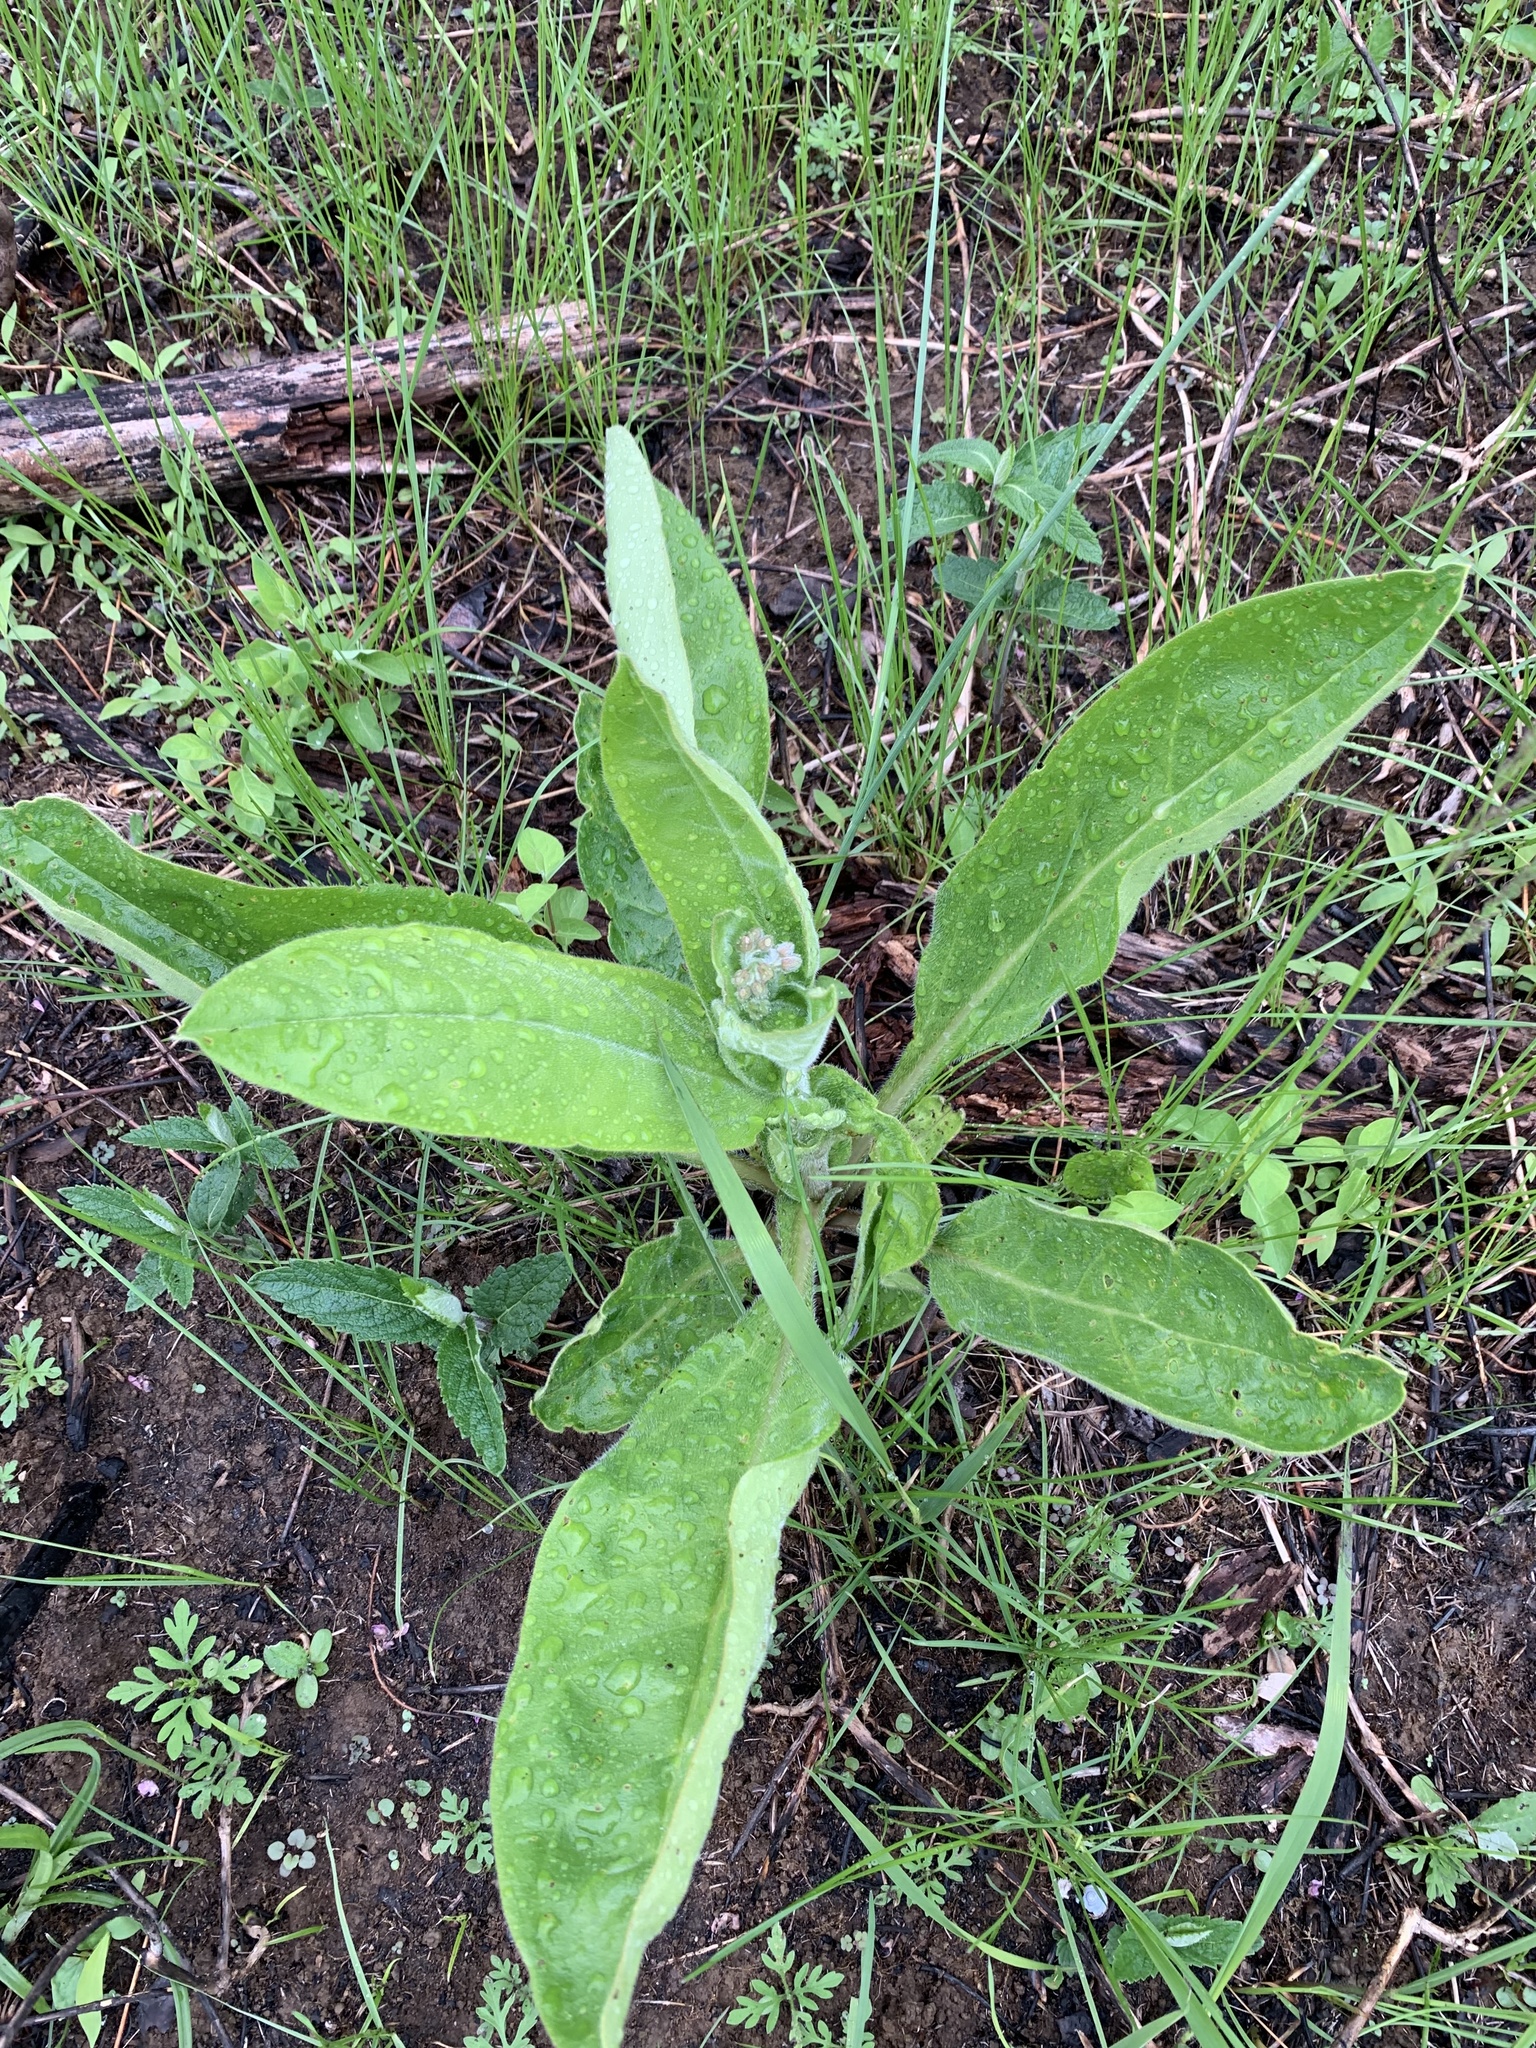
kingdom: Plantae
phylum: Tracheophyta
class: Magnoliopsida
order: Boraginales
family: Boraginaceae
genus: Andersonglossum
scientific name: Andersonglossum virginianum
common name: Wild comfrey
